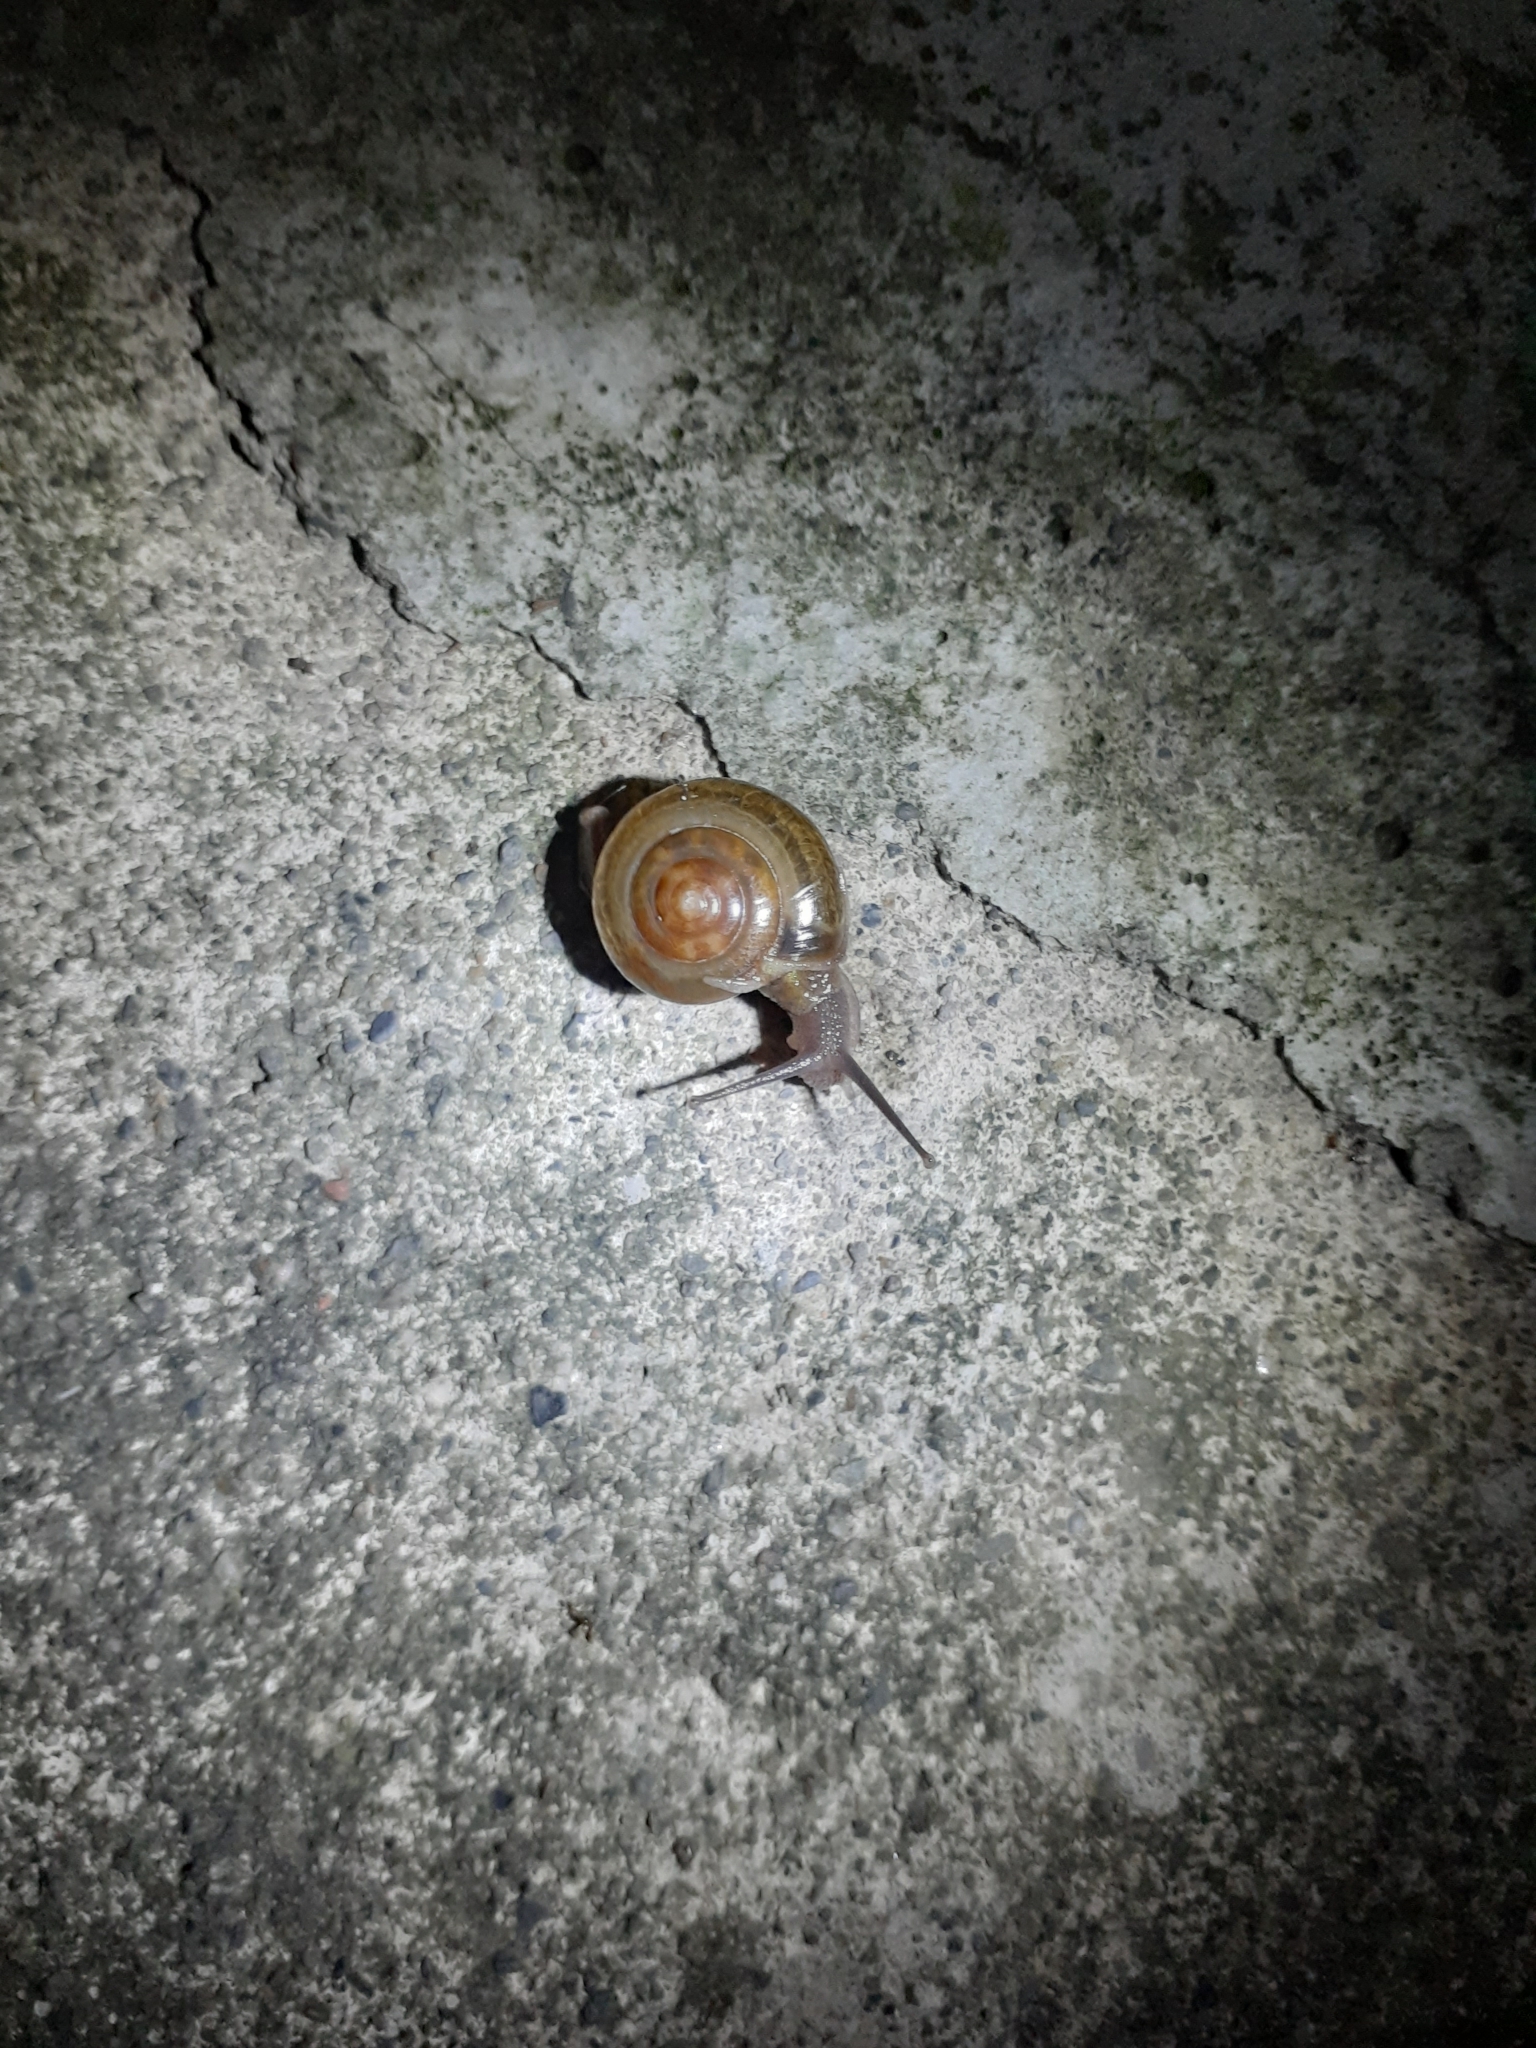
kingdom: Animalia
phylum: Mollusca
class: Gastropoda
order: Stylommatophora
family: Ariophantidae
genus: Macrochlamys
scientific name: Macrochlamys hippocastaneum
